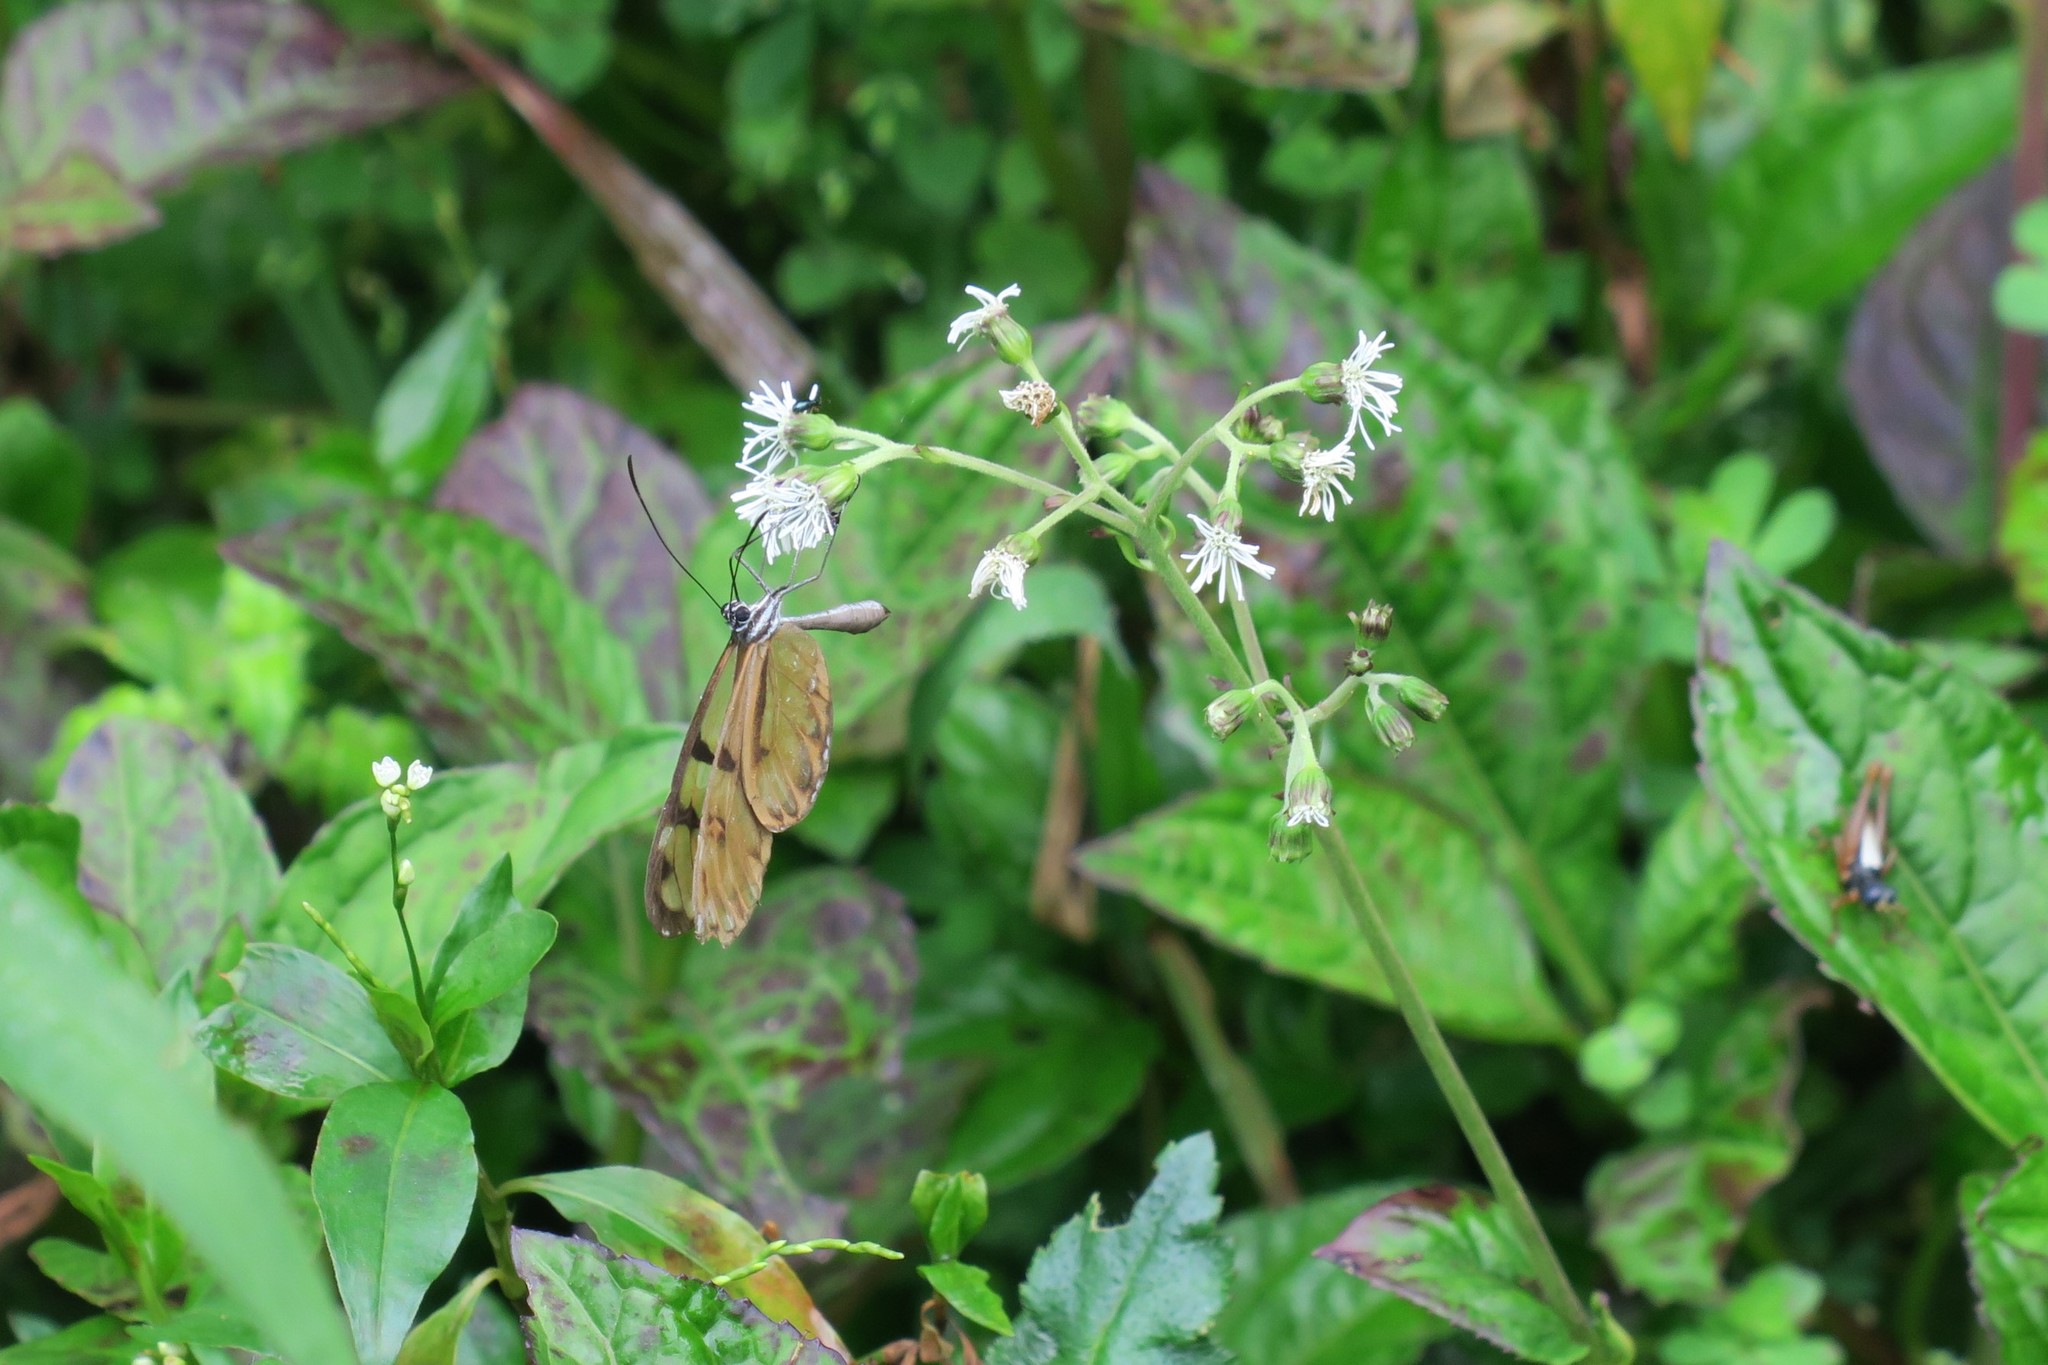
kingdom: Animalia
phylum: Arthropoda
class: Insecta
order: Lepidoptera
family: Nymphalidae
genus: Oleria
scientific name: Oleria baizana
